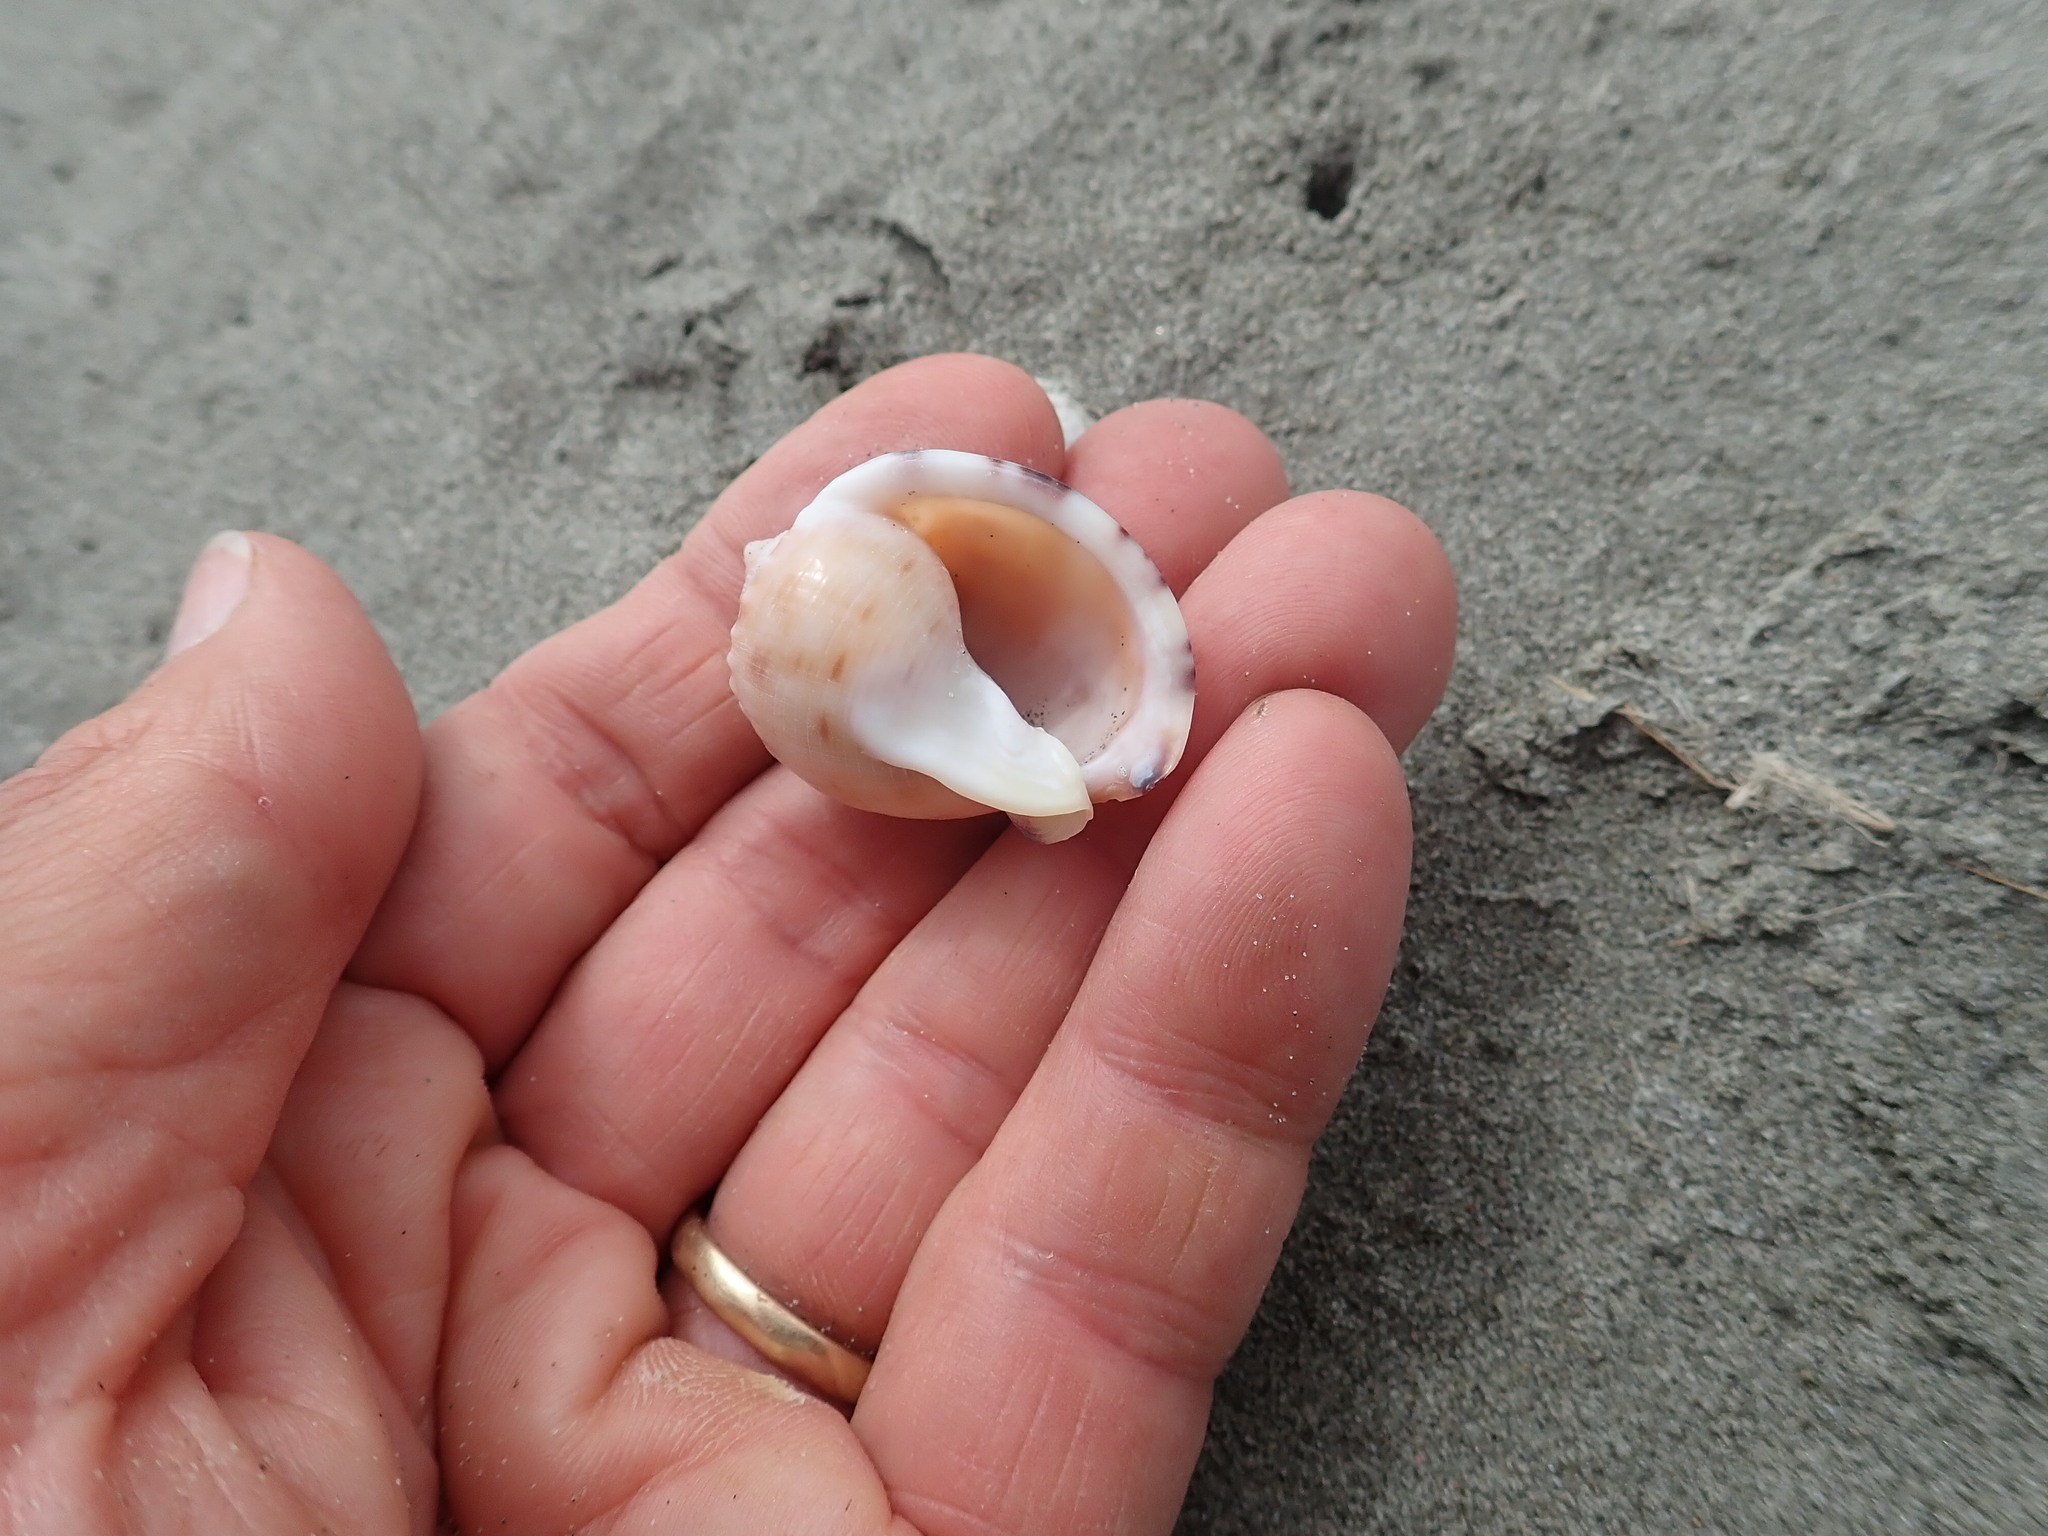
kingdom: Animalia
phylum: Mollusca
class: Gastropoda
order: Littorinimorpha
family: Cassidae
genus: Semicassis
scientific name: Semicassis pyrum
